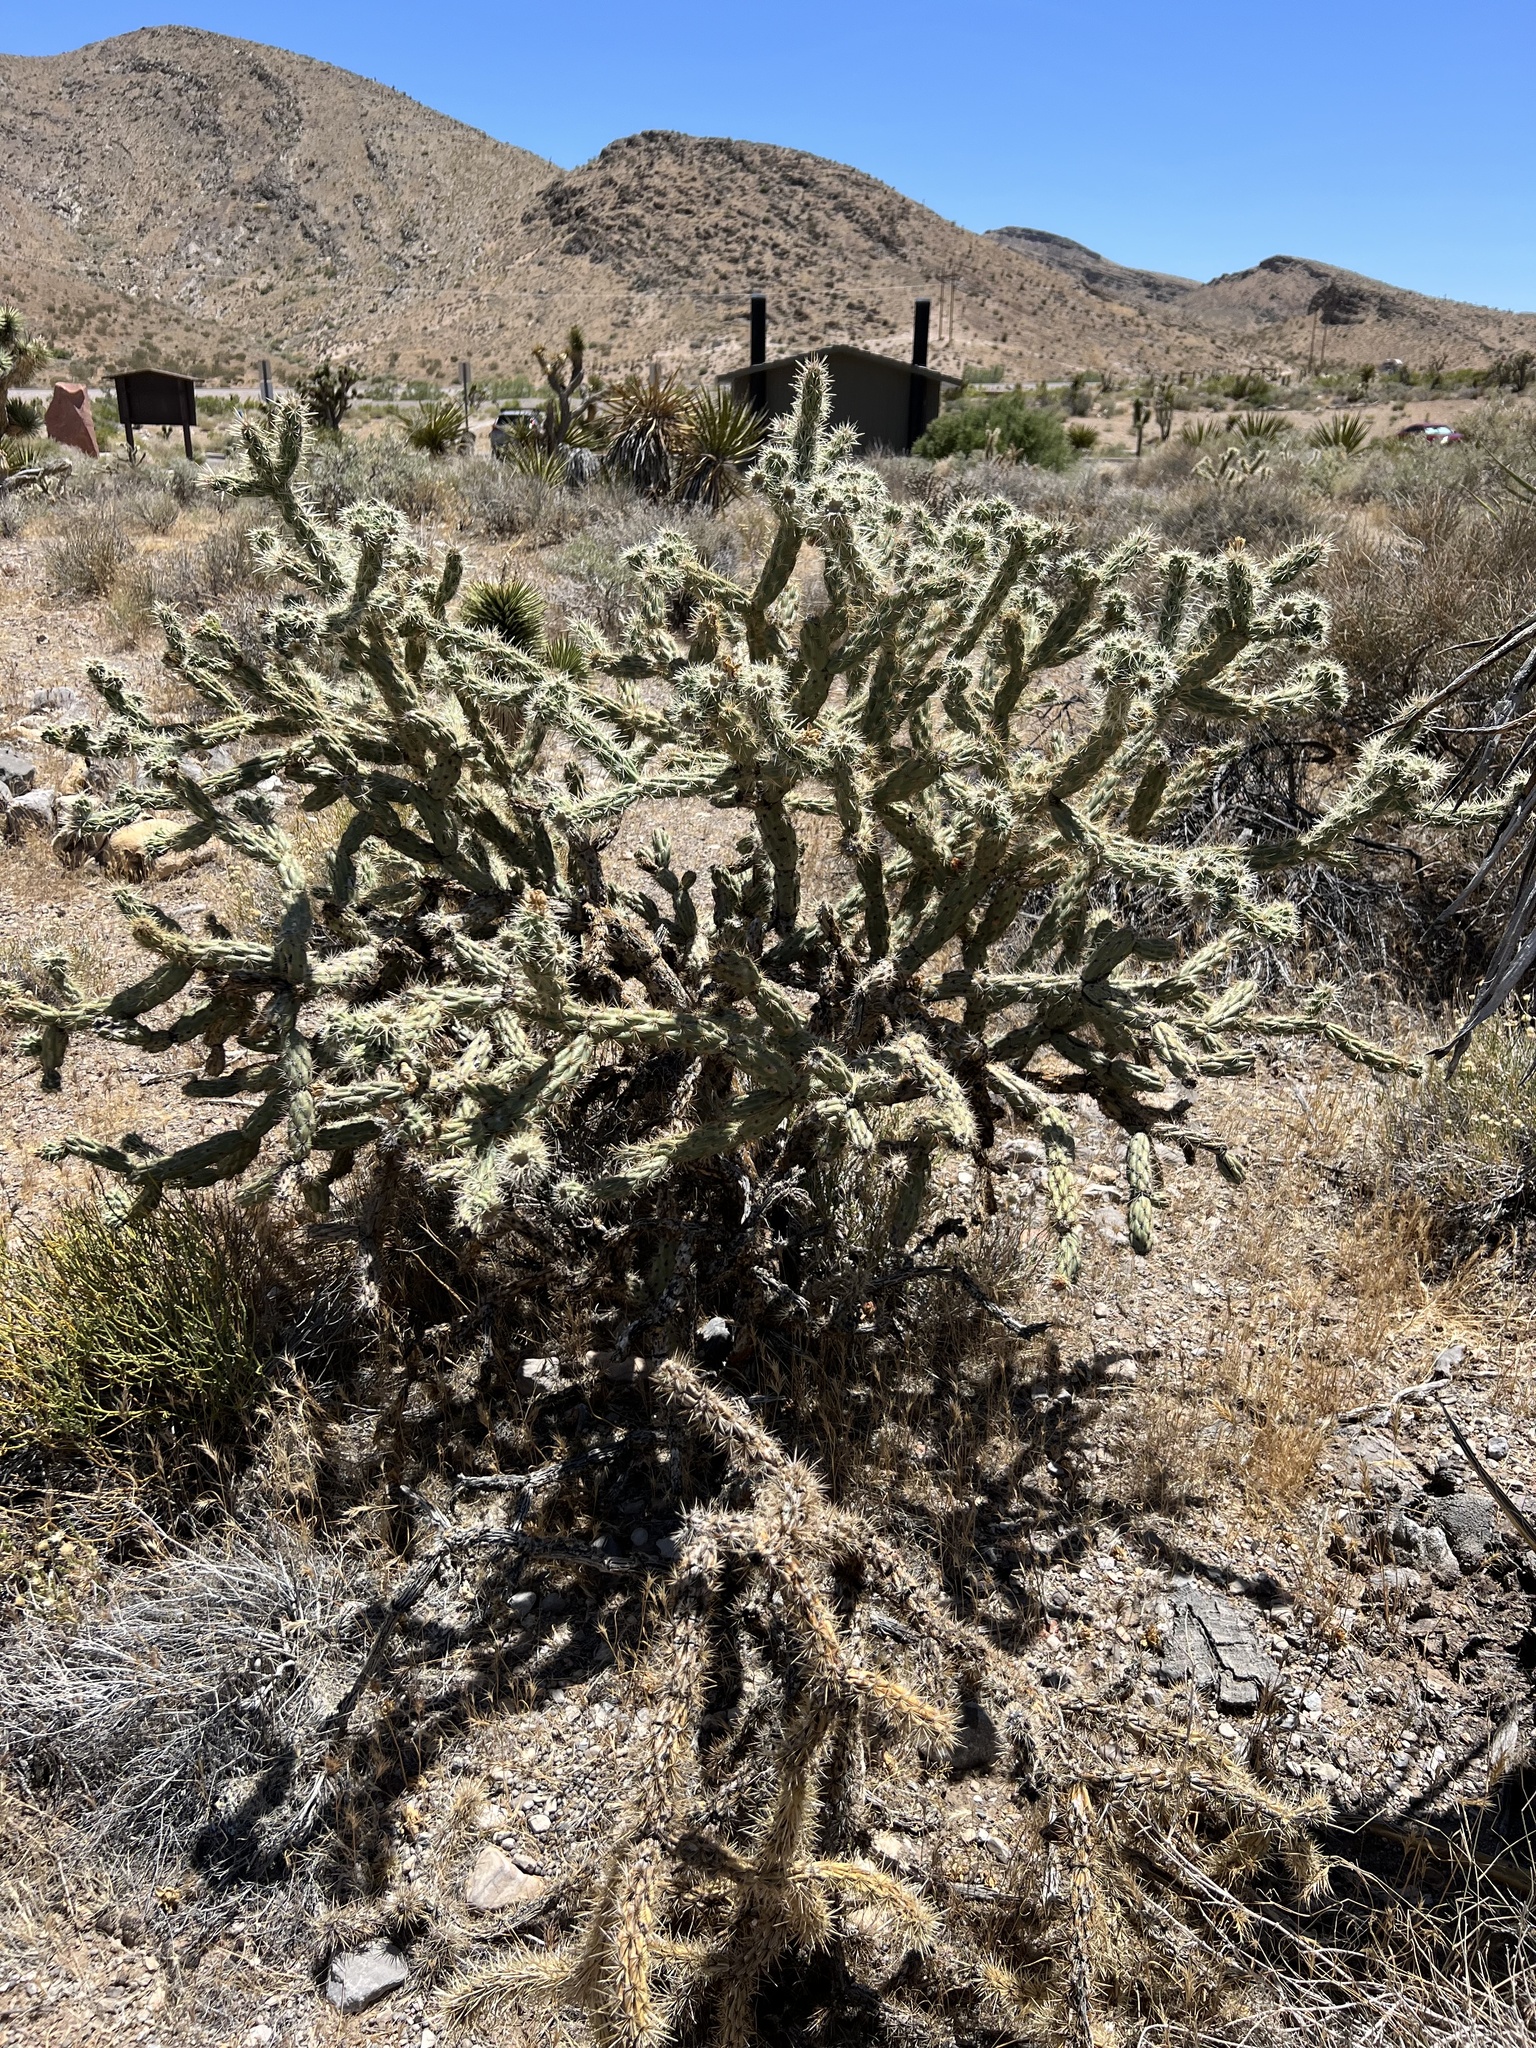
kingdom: Plantae
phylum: Tracheophyta
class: Magnoliopsida
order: Caryophyllales
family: Cactaceae
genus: Cylindropuntia
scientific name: Cylindropuntia acanthocarpa
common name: Buckhorn cholla
